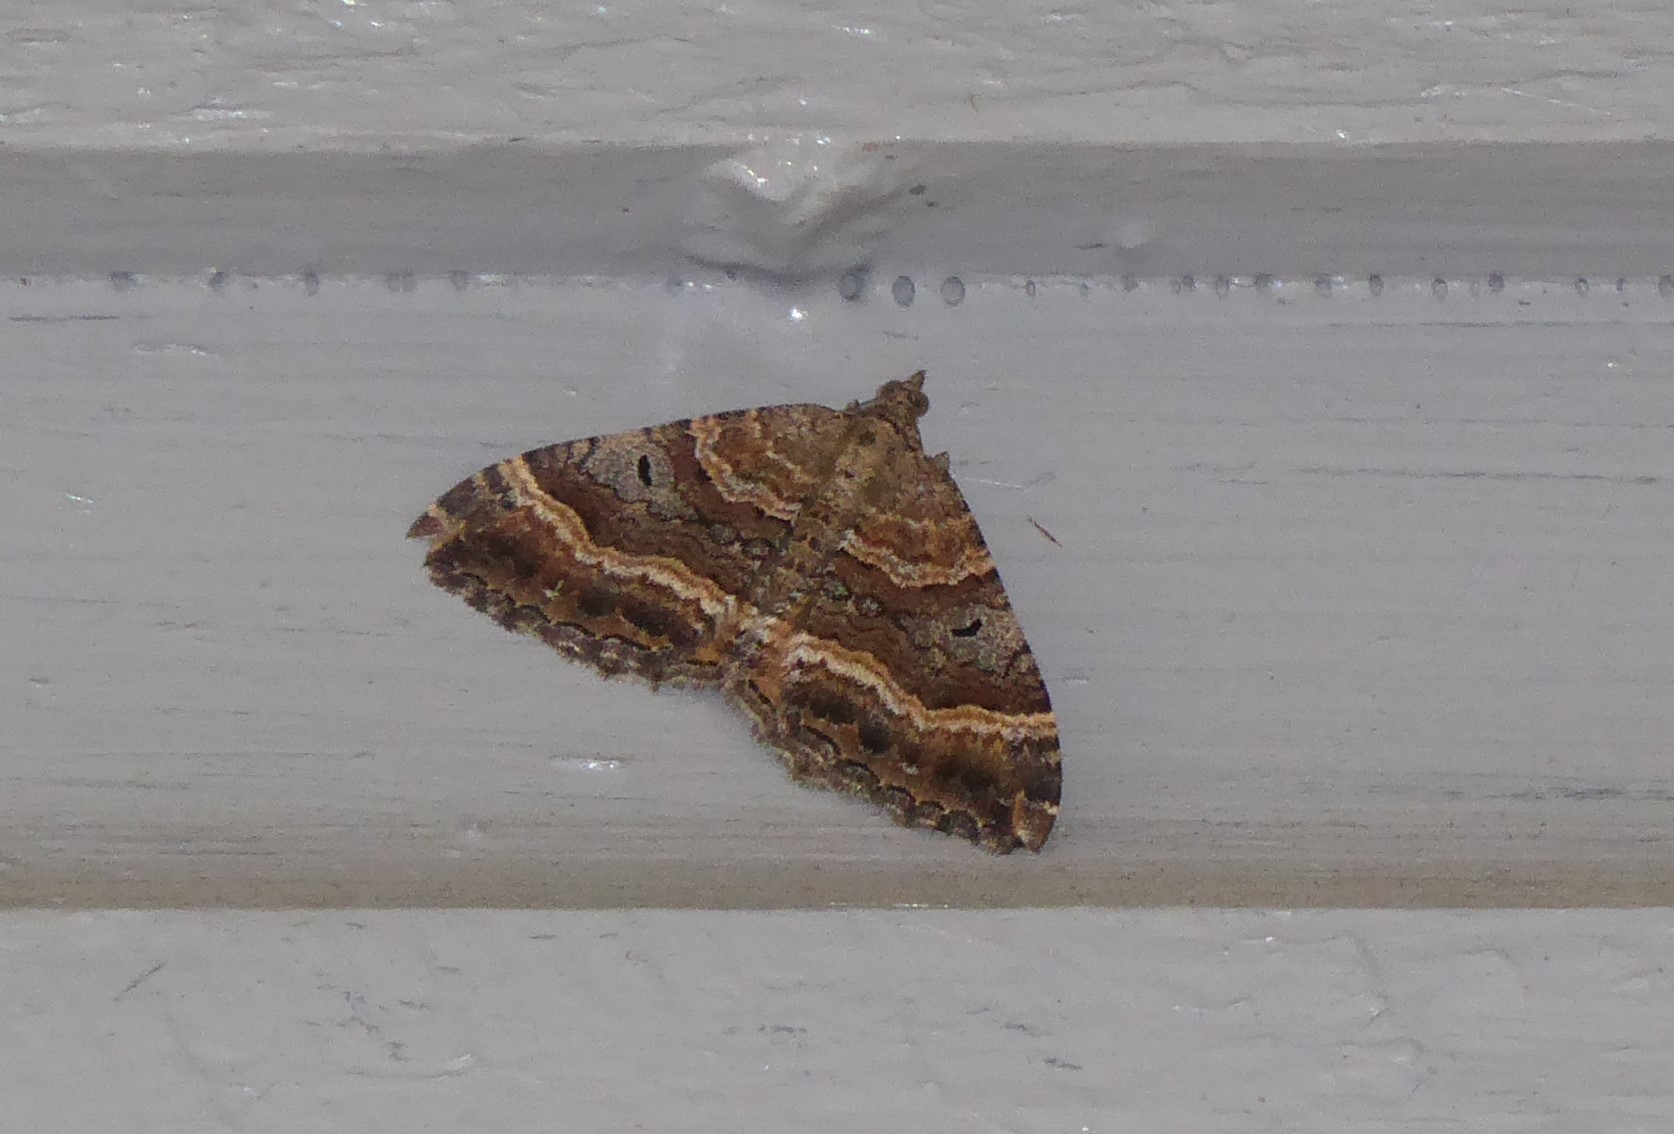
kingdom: Animalia
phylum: Arthropoda
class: Insecta
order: Lepidoptera
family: Geometridae
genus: Hydriomena
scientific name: Hydriomena deltoidata
